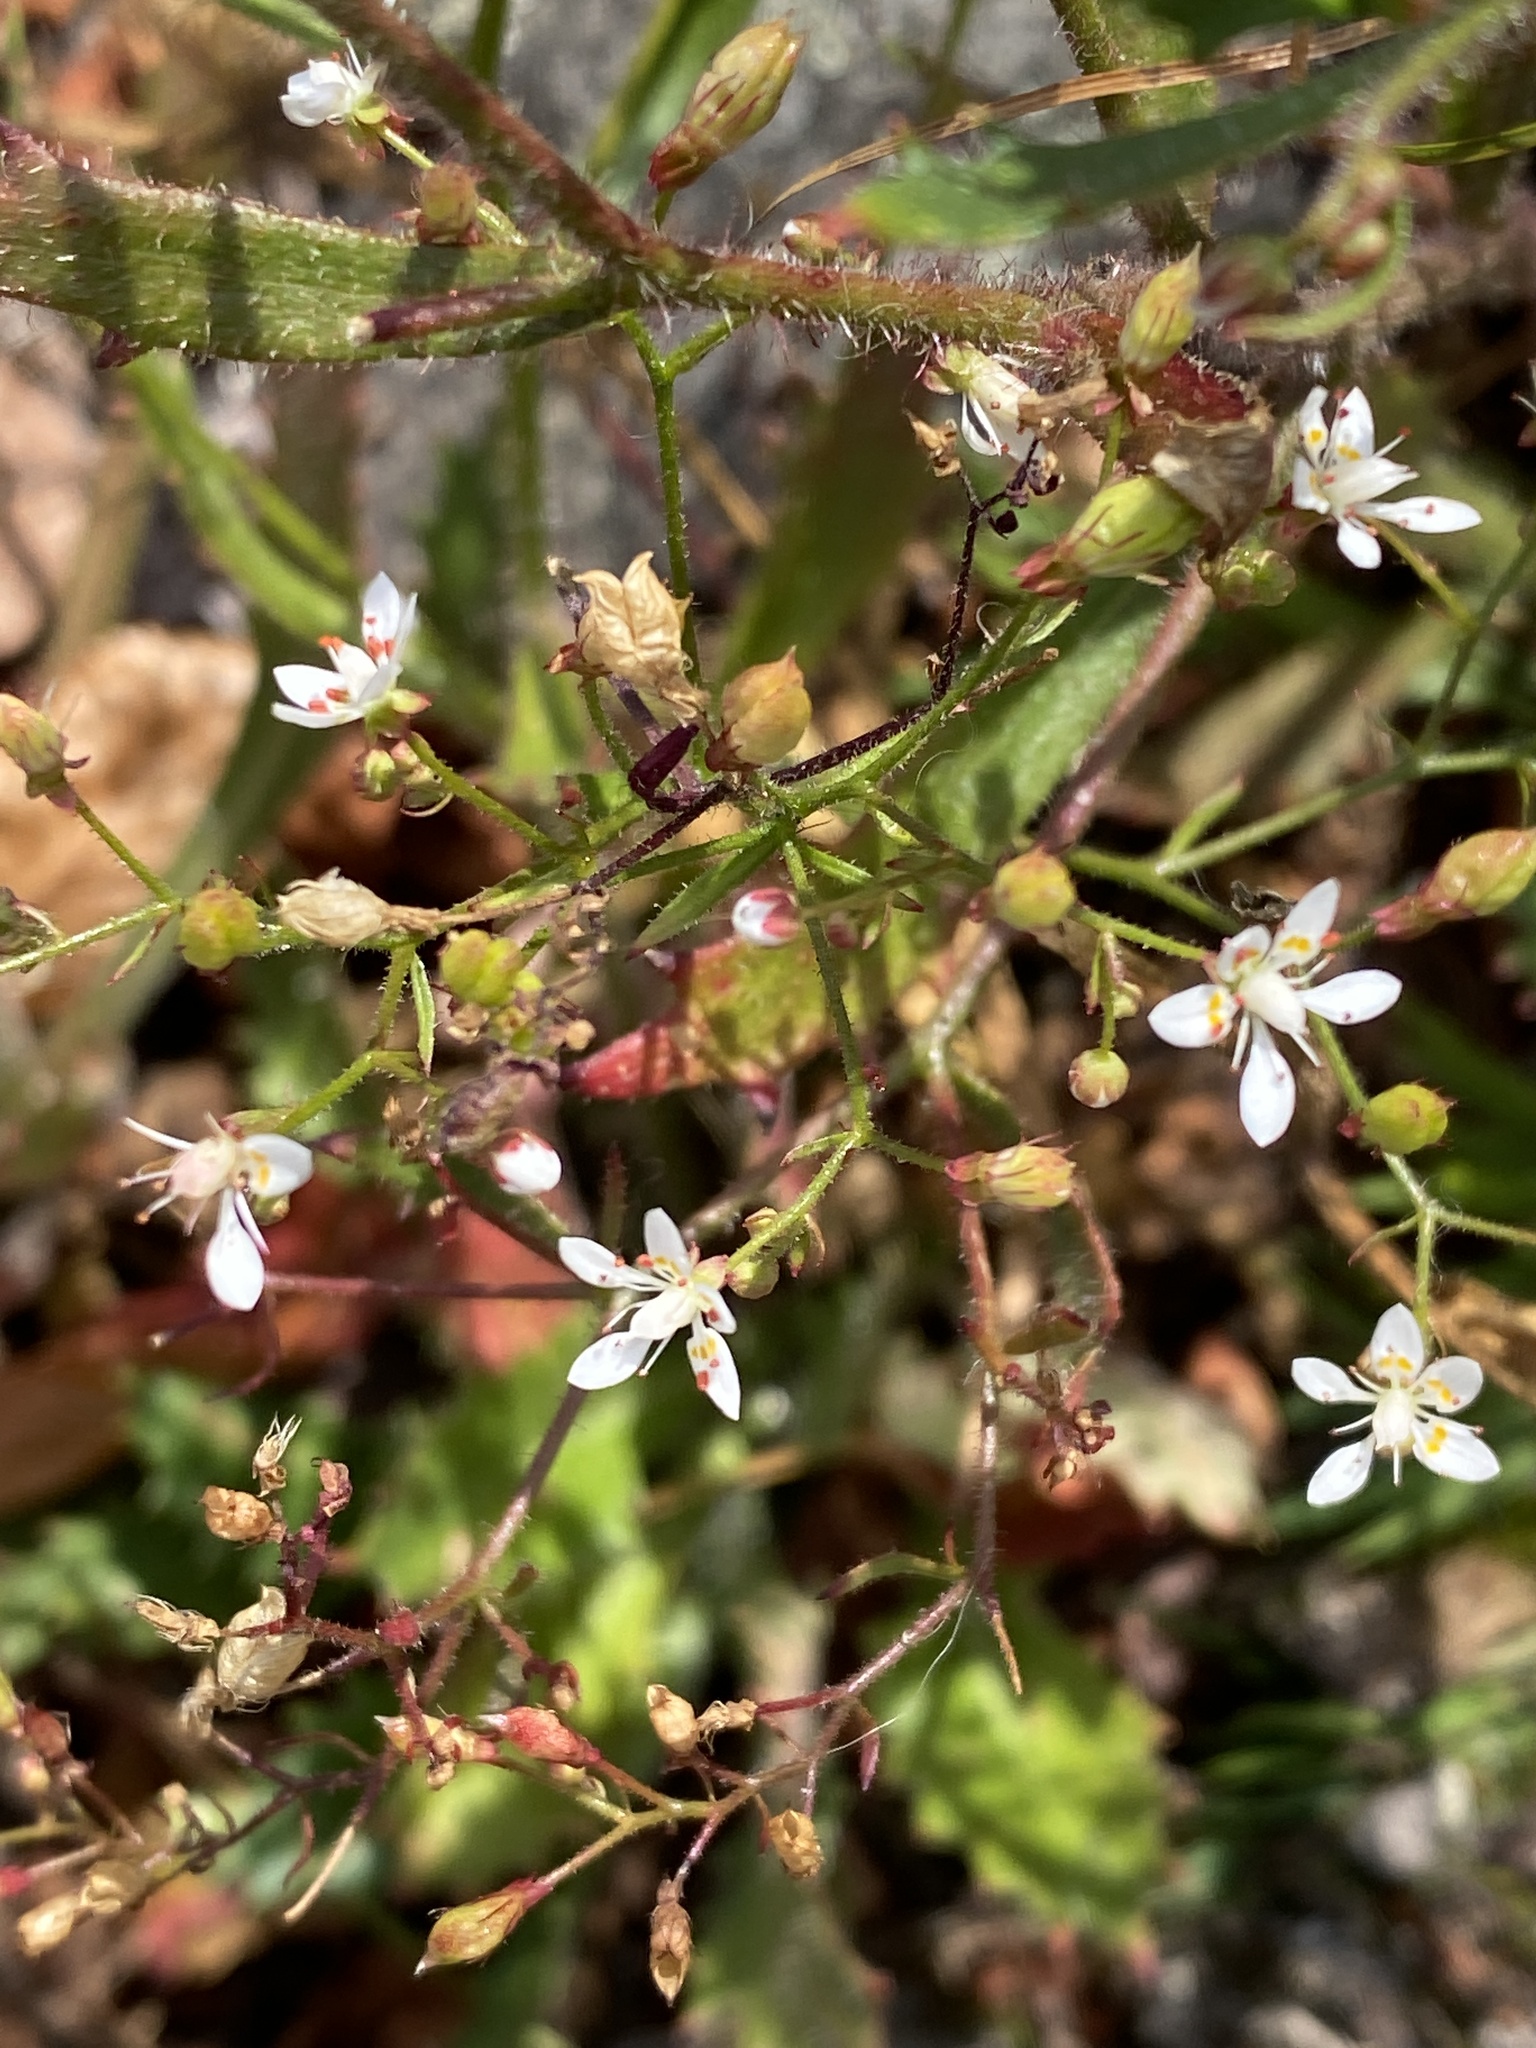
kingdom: Plantae
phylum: Tracheophyta
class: Magnoliopsida
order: Saxifragales
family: Saxifragaceae
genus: Micranthes
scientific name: Micranthes petiolaris
